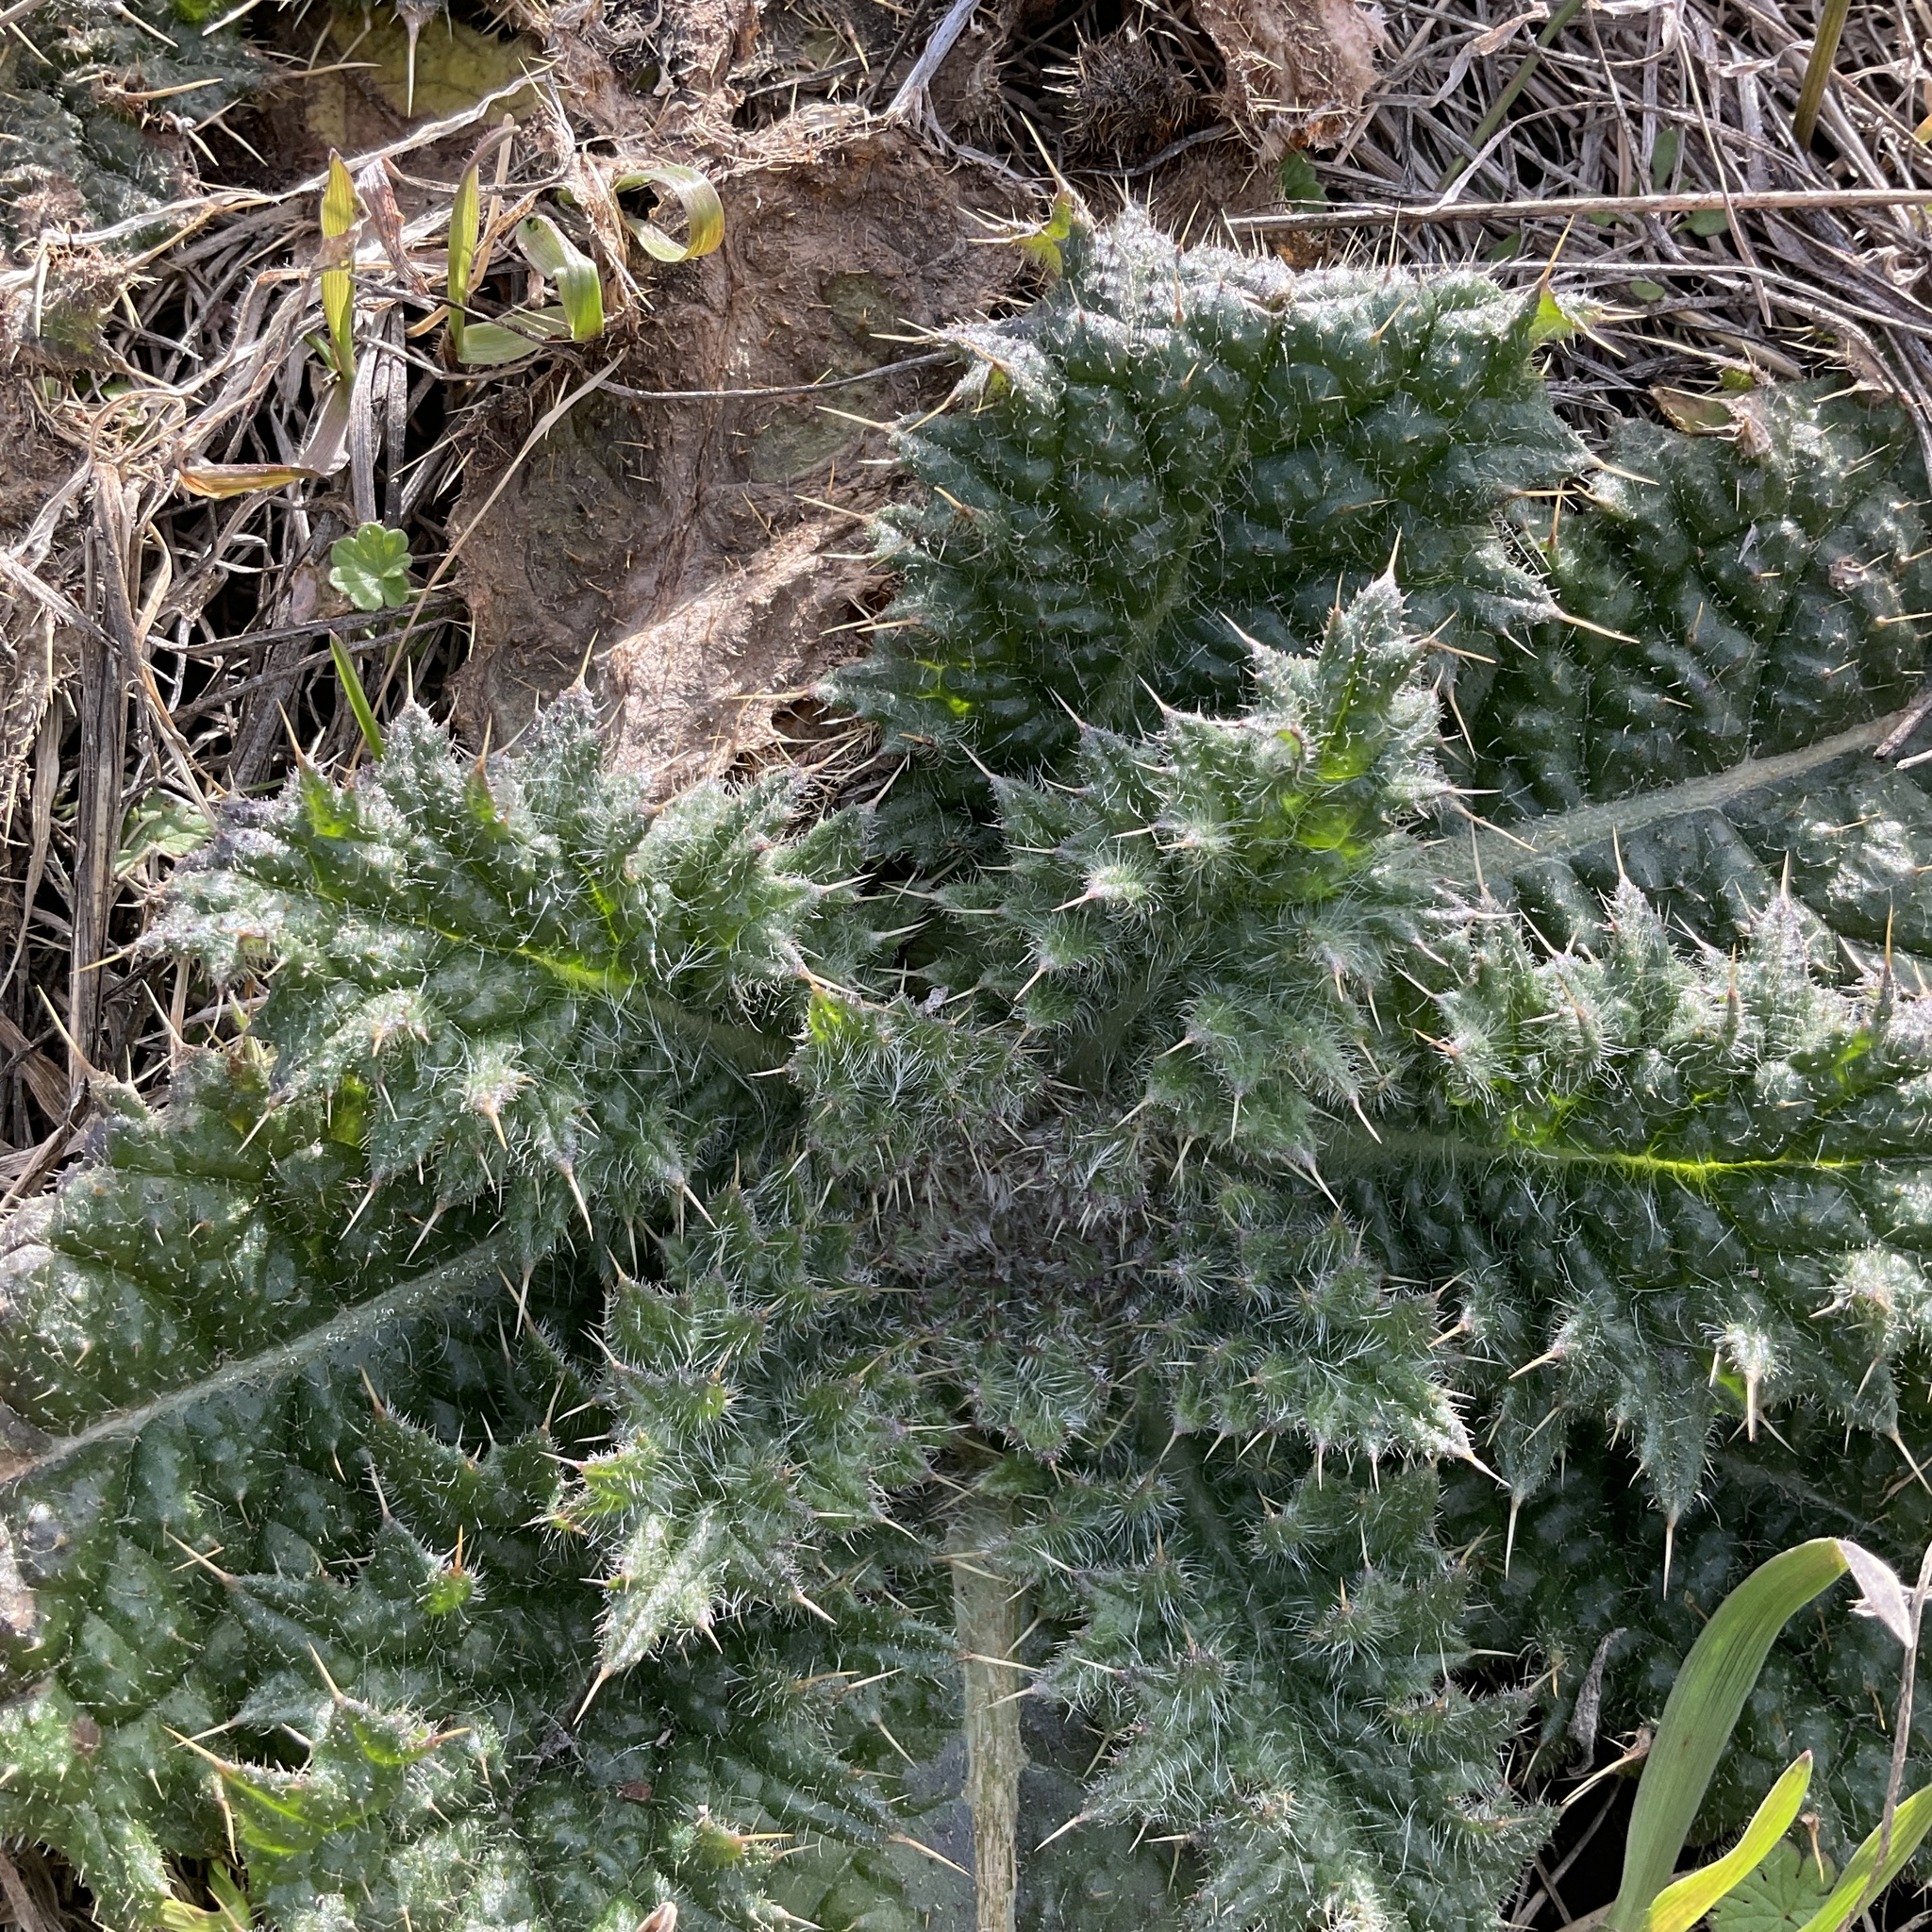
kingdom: Plantae
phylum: Tracheophyta
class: Magnoliopsida
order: Asterales
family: Asteraceae
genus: Cirsium
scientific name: Cirsium vulgare
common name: Bull thistle
